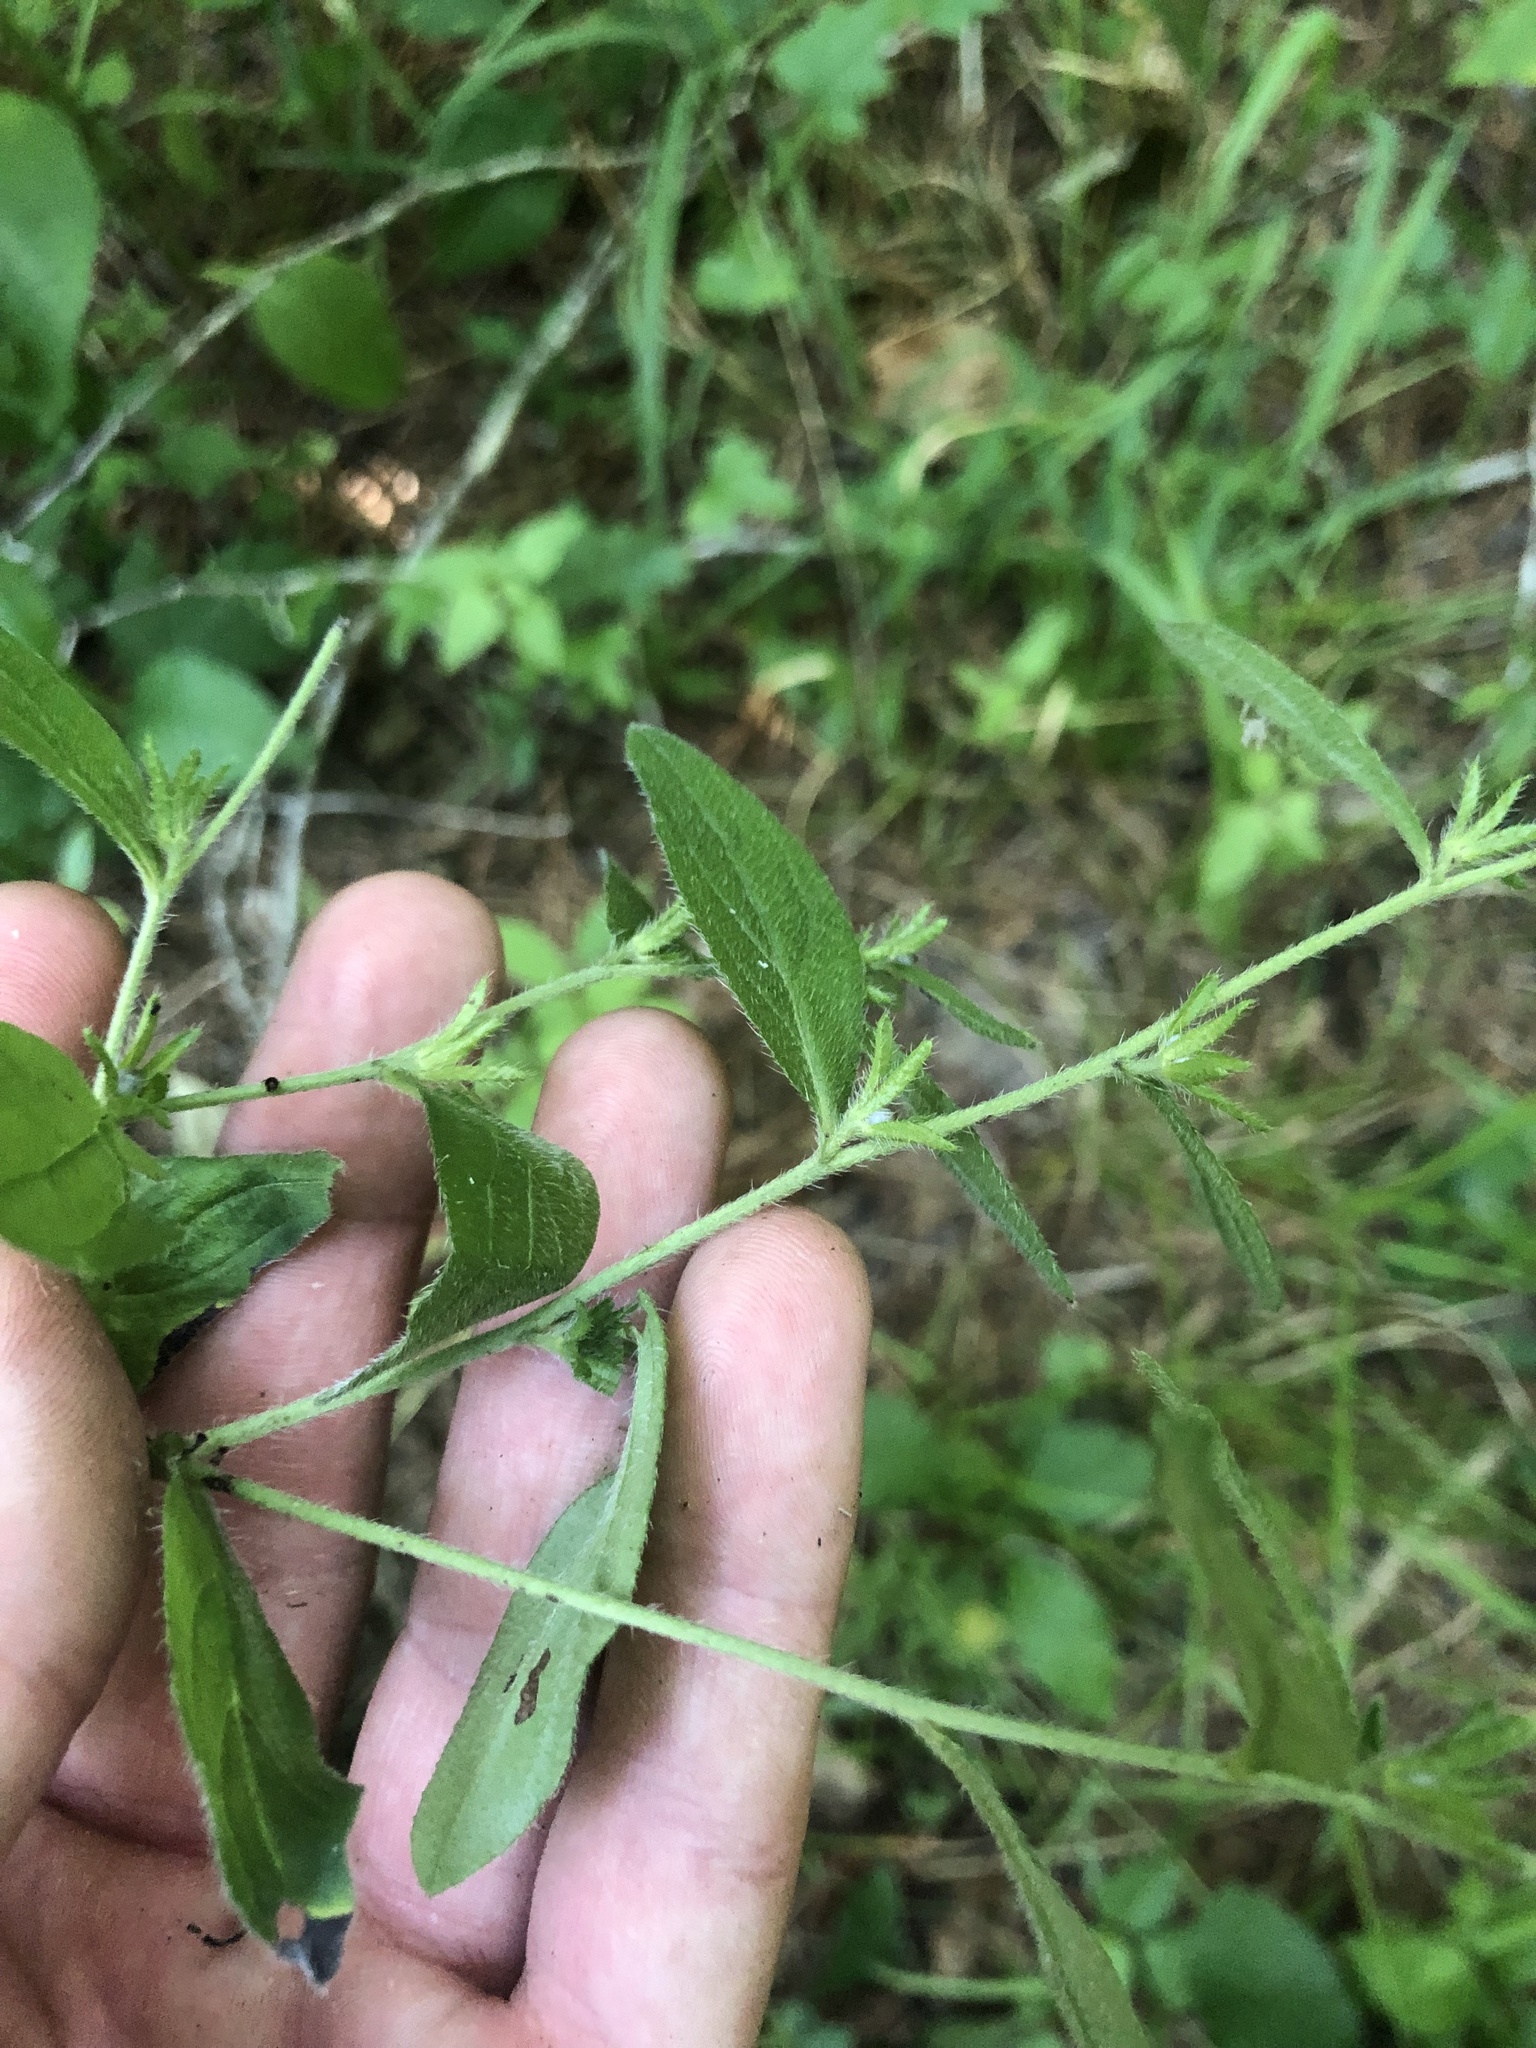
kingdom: Plantae
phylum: Tracheophyta
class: Magnoliopsida
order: Boraginales
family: Boraginaceae
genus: Lithospermum
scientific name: Lithospermum tuberosum
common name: Southern stoneseed
